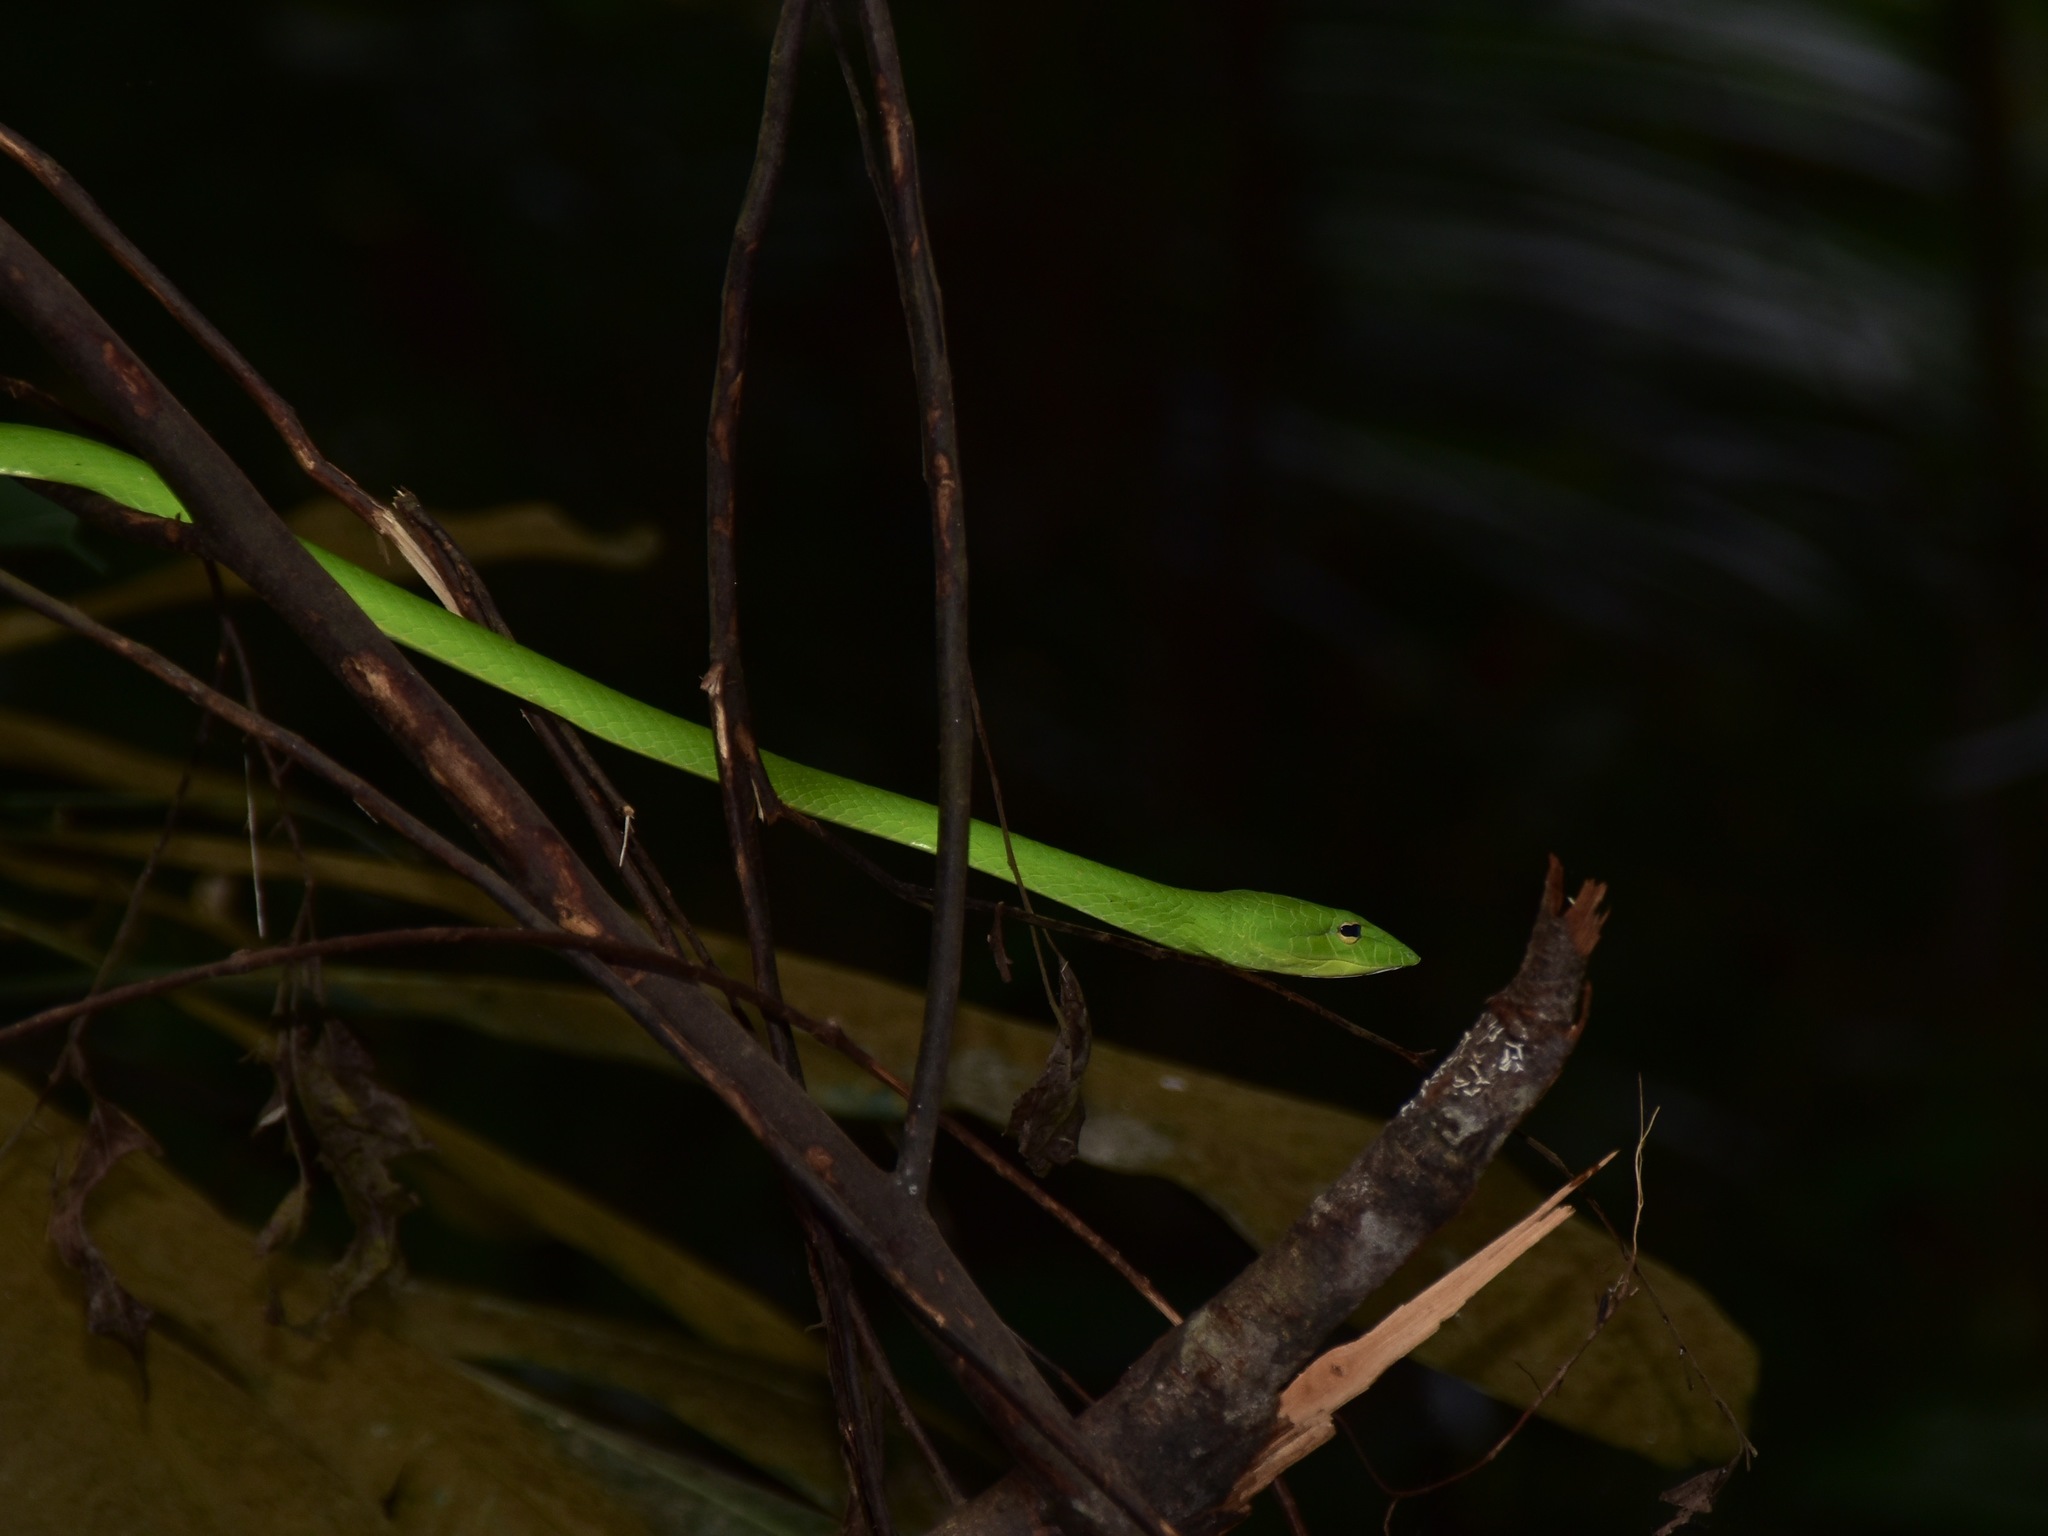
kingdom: Animalia
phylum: Chordata
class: Squamata
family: Colubridae
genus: Ahaetulla
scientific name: Ahaetulla prasina
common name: Oriental whip snake
